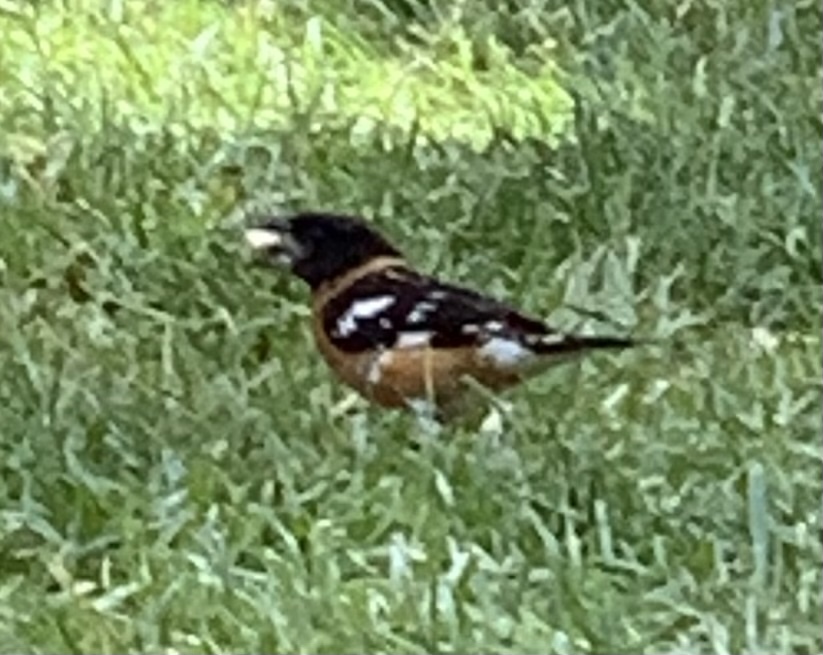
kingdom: Animalia
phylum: Chordata
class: Aves
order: Passeriformes
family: Cardinalidae
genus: Pheucticus
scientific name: Pheucticus melanocephalus
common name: Black-headed grosbeak
